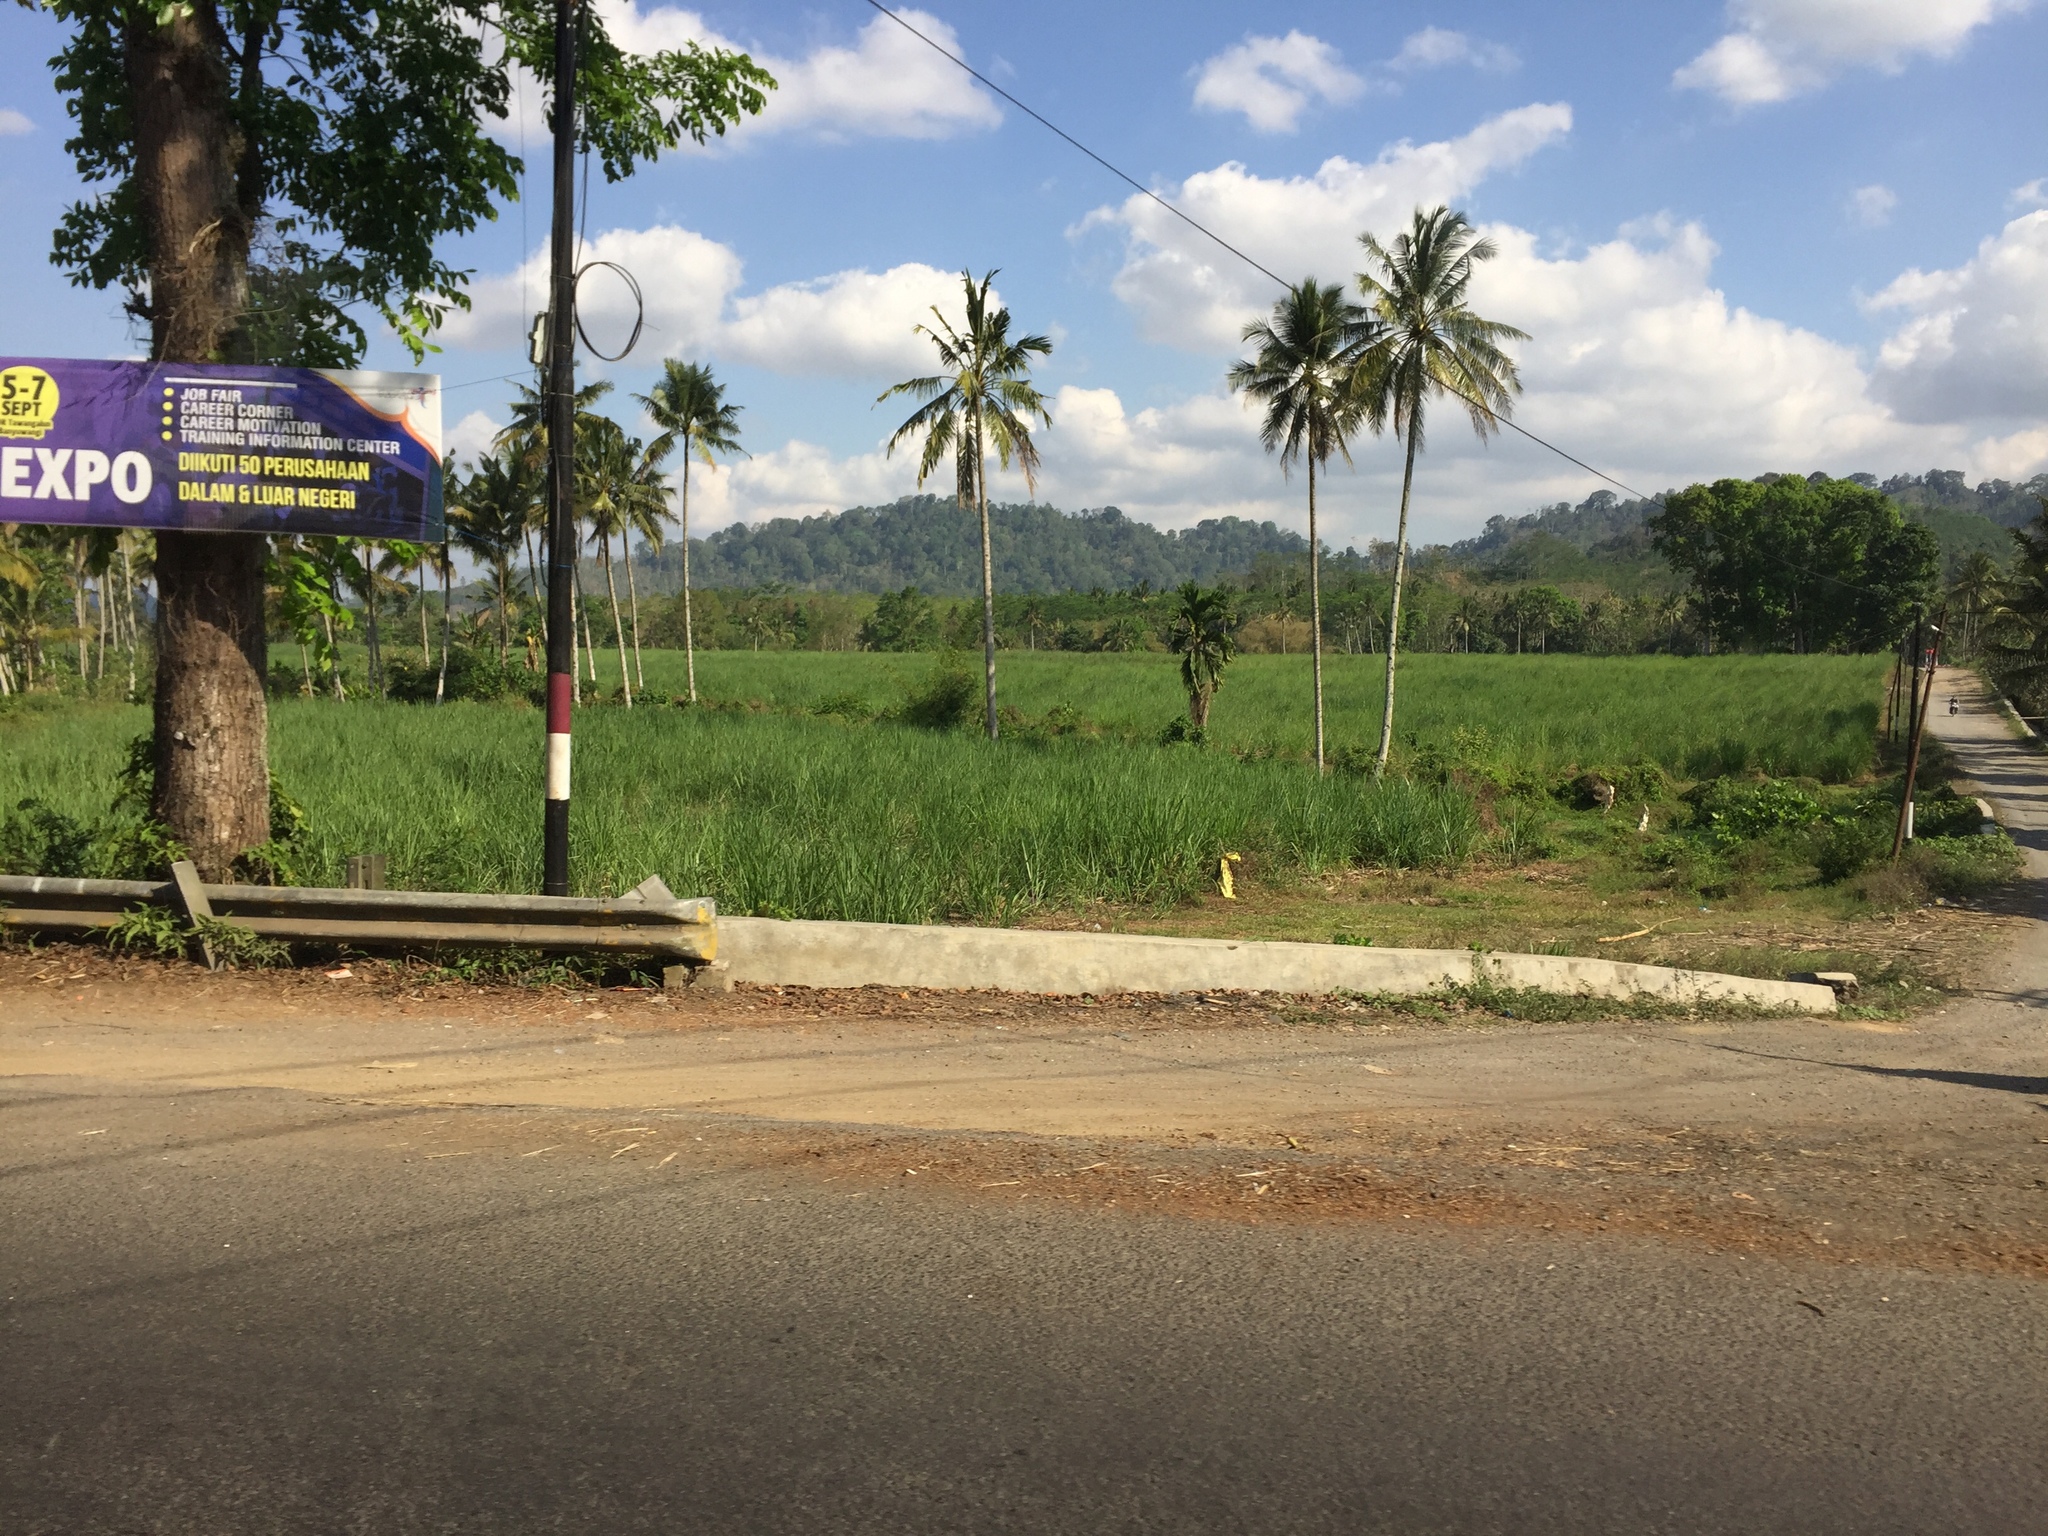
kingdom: Plantae
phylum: Tracheophyta
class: Liliopsida
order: Arecales
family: Arecaceae
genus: Cocos
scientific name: Cocos nucifera
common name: Coconut palm
